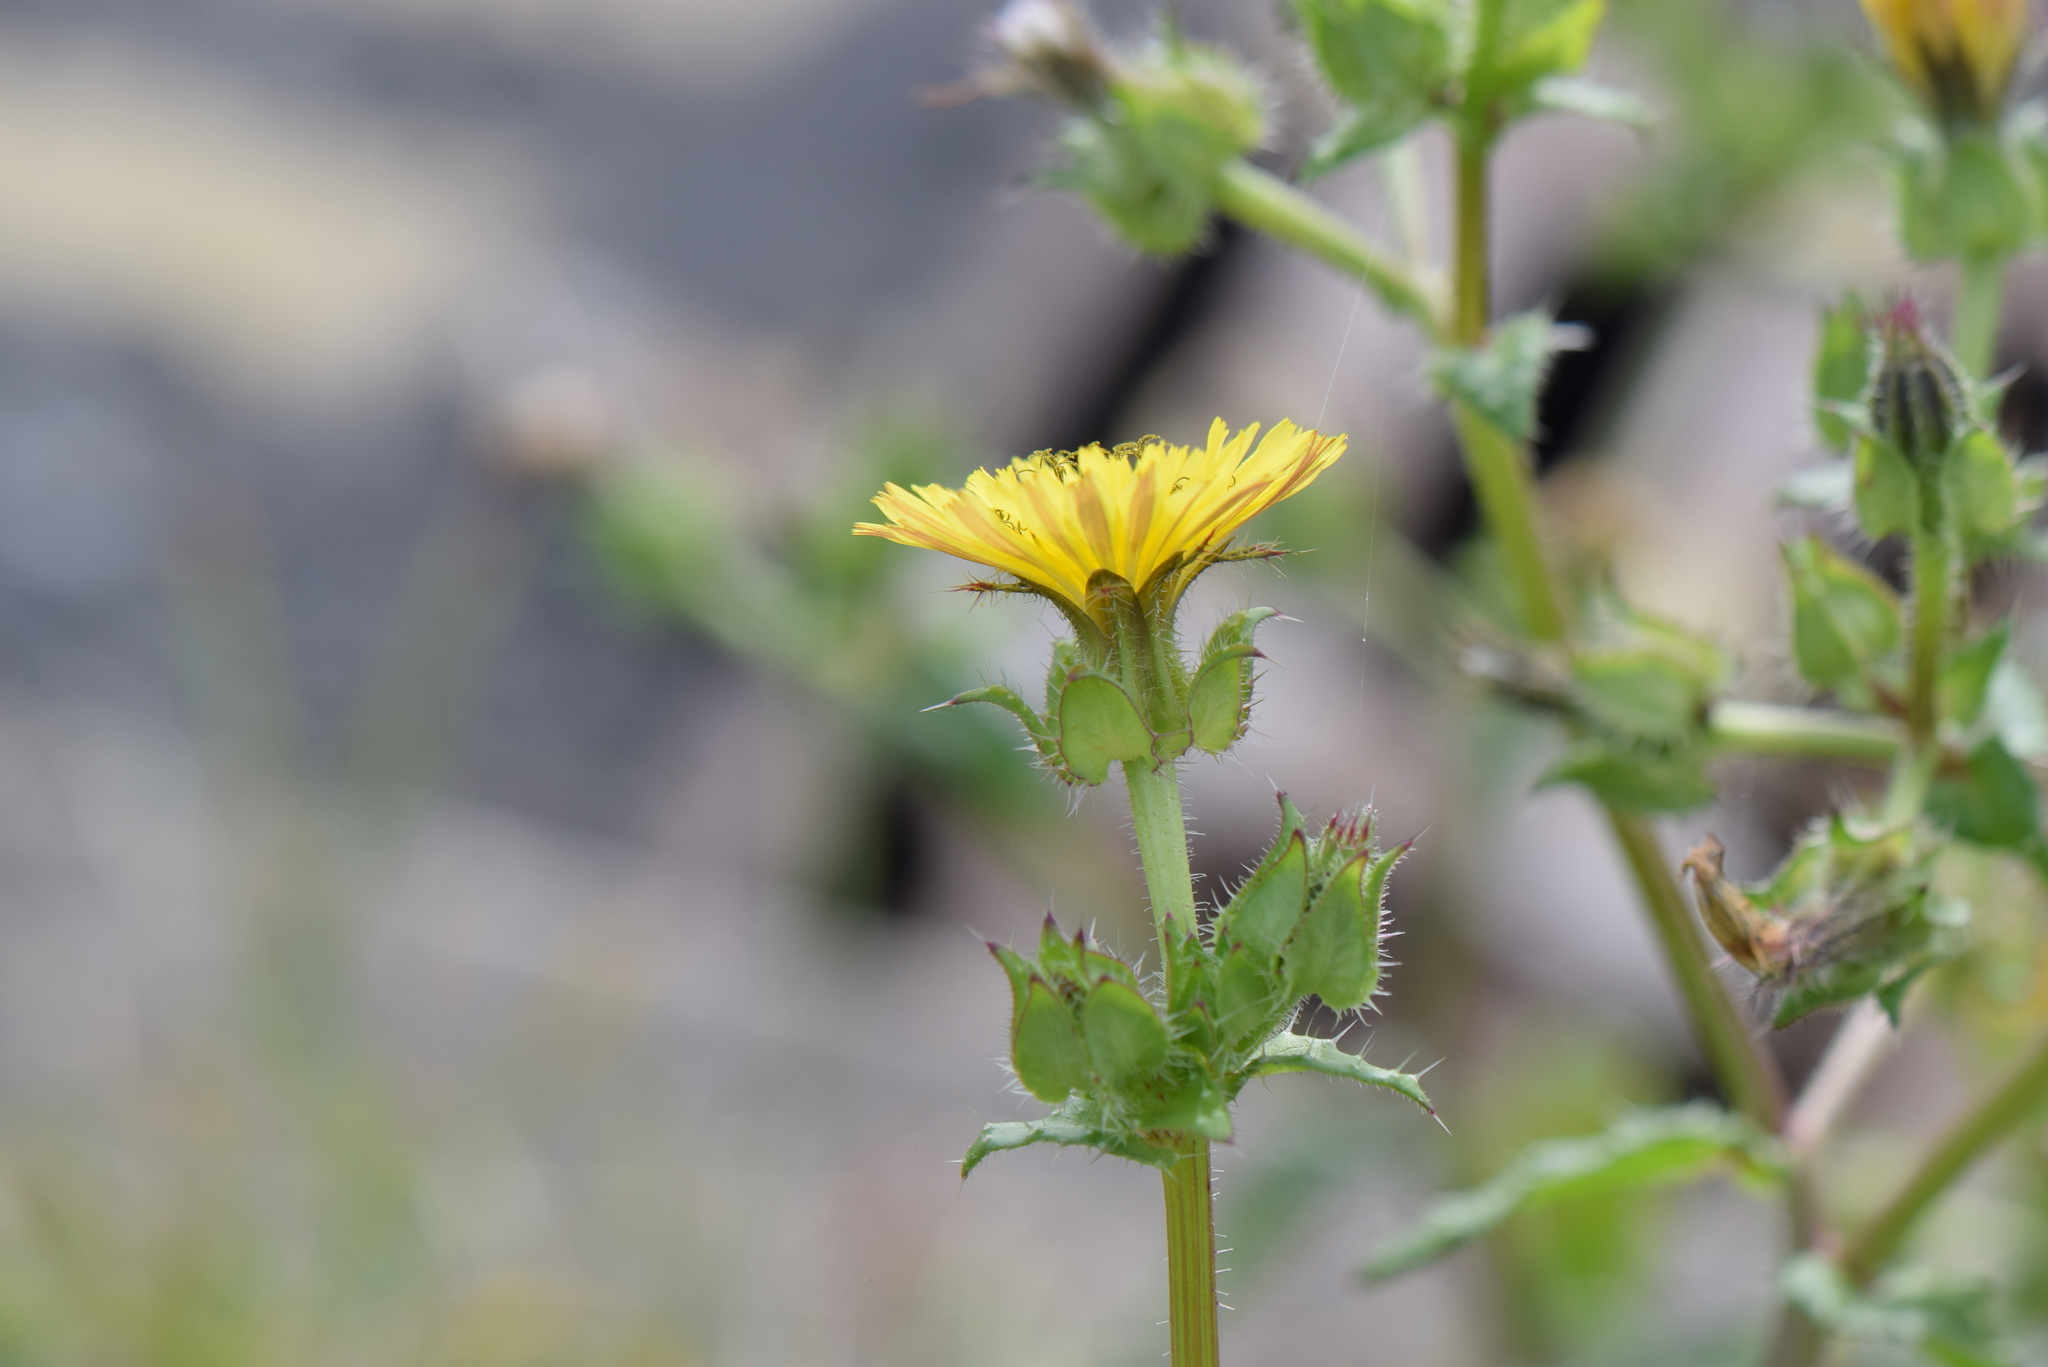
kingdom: Plantae
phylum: Tracheophyta
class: Magnoliopsida
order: Asterales
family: Asteraceae
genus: Helminthotheca
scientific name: Helminthotheca echioides
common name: Ox-tongue
